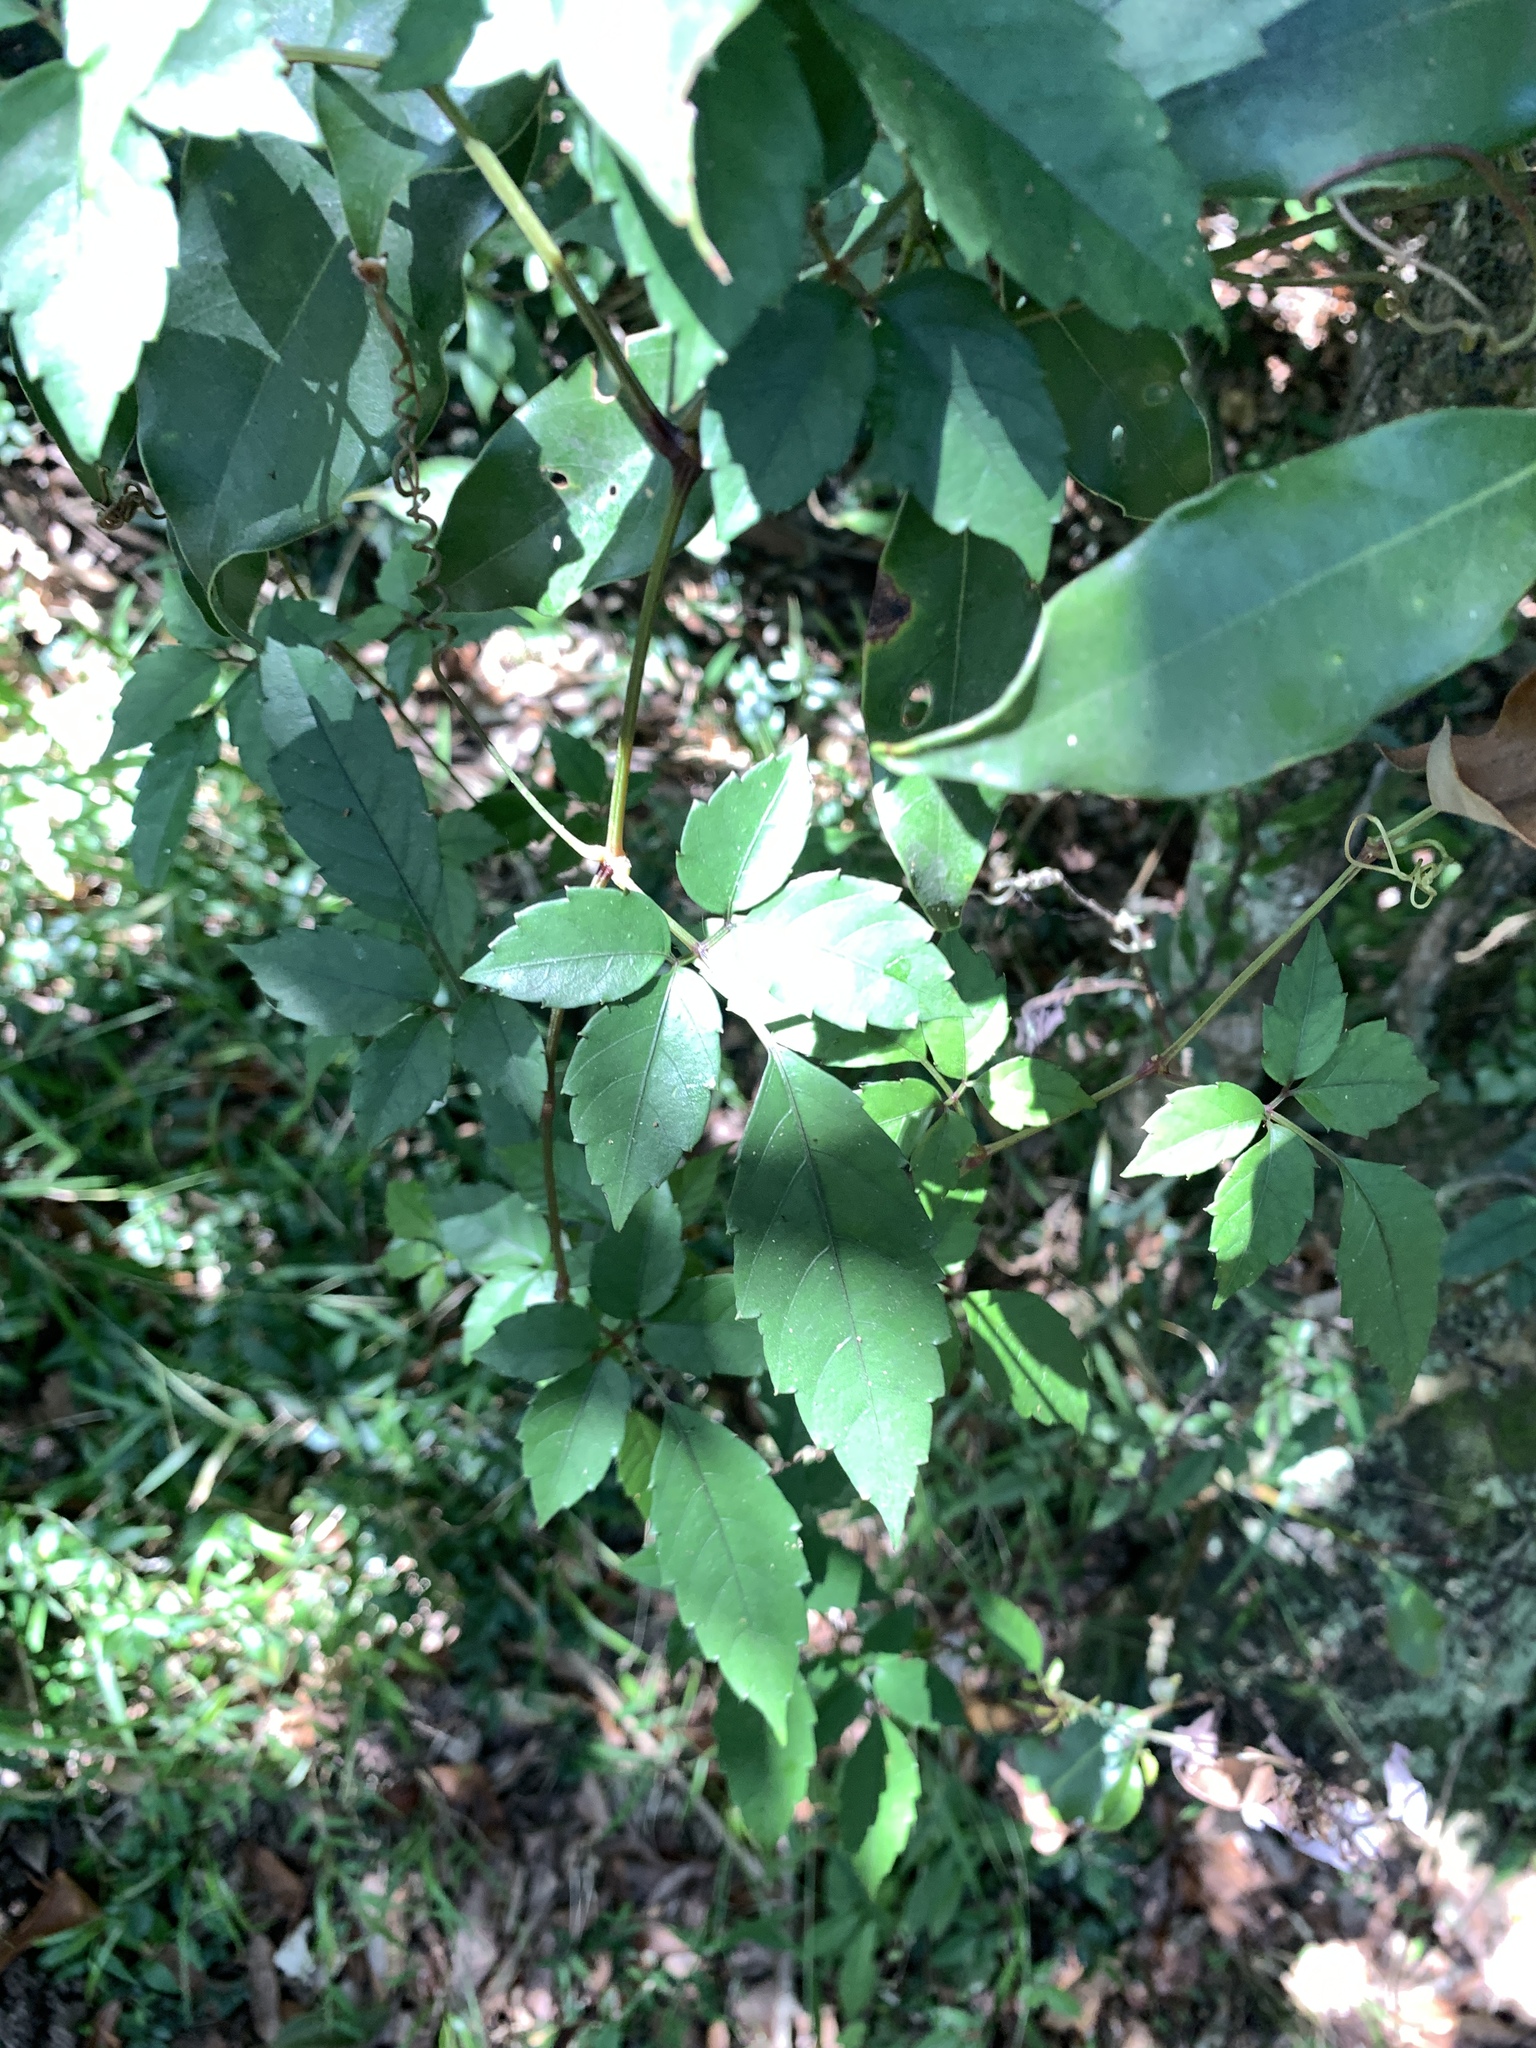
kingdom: Plantae
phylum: Tracheophyta
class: Magnoliopsida
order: Vitales
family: Vitaceae
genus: Causonis
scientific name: Causonis corniculata
